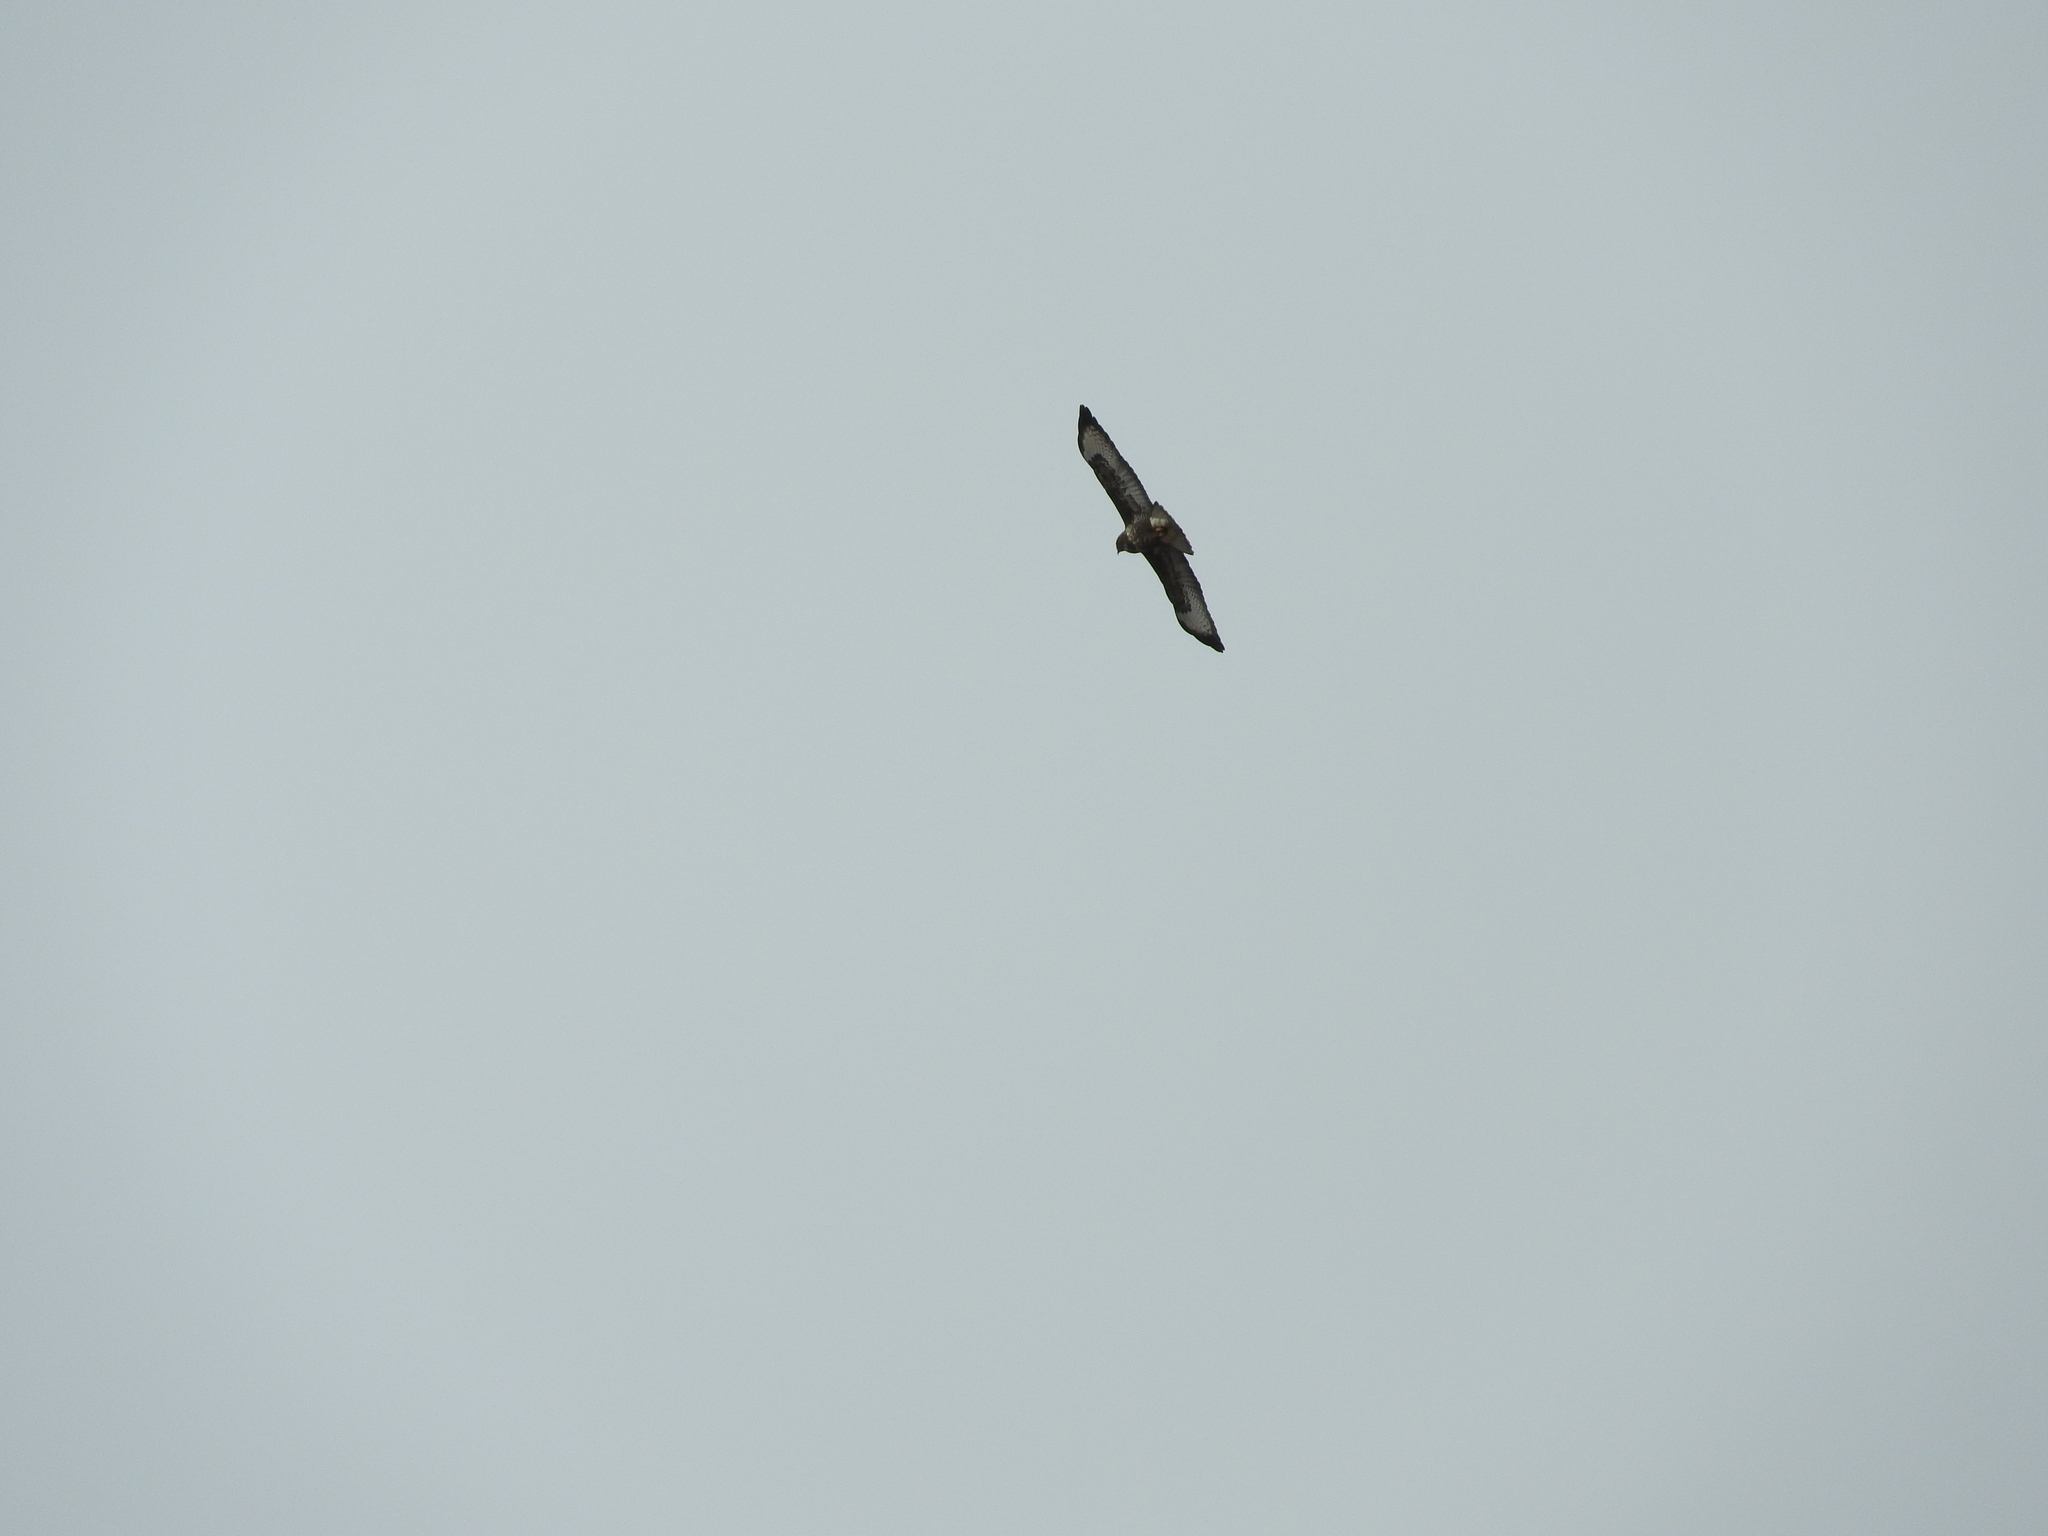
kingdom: Animalia
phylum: Chordata
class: Aves
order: Accipitriformes
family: Accipitridae
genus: Buteo
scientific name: Buteo buteo
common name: Common buzzard
